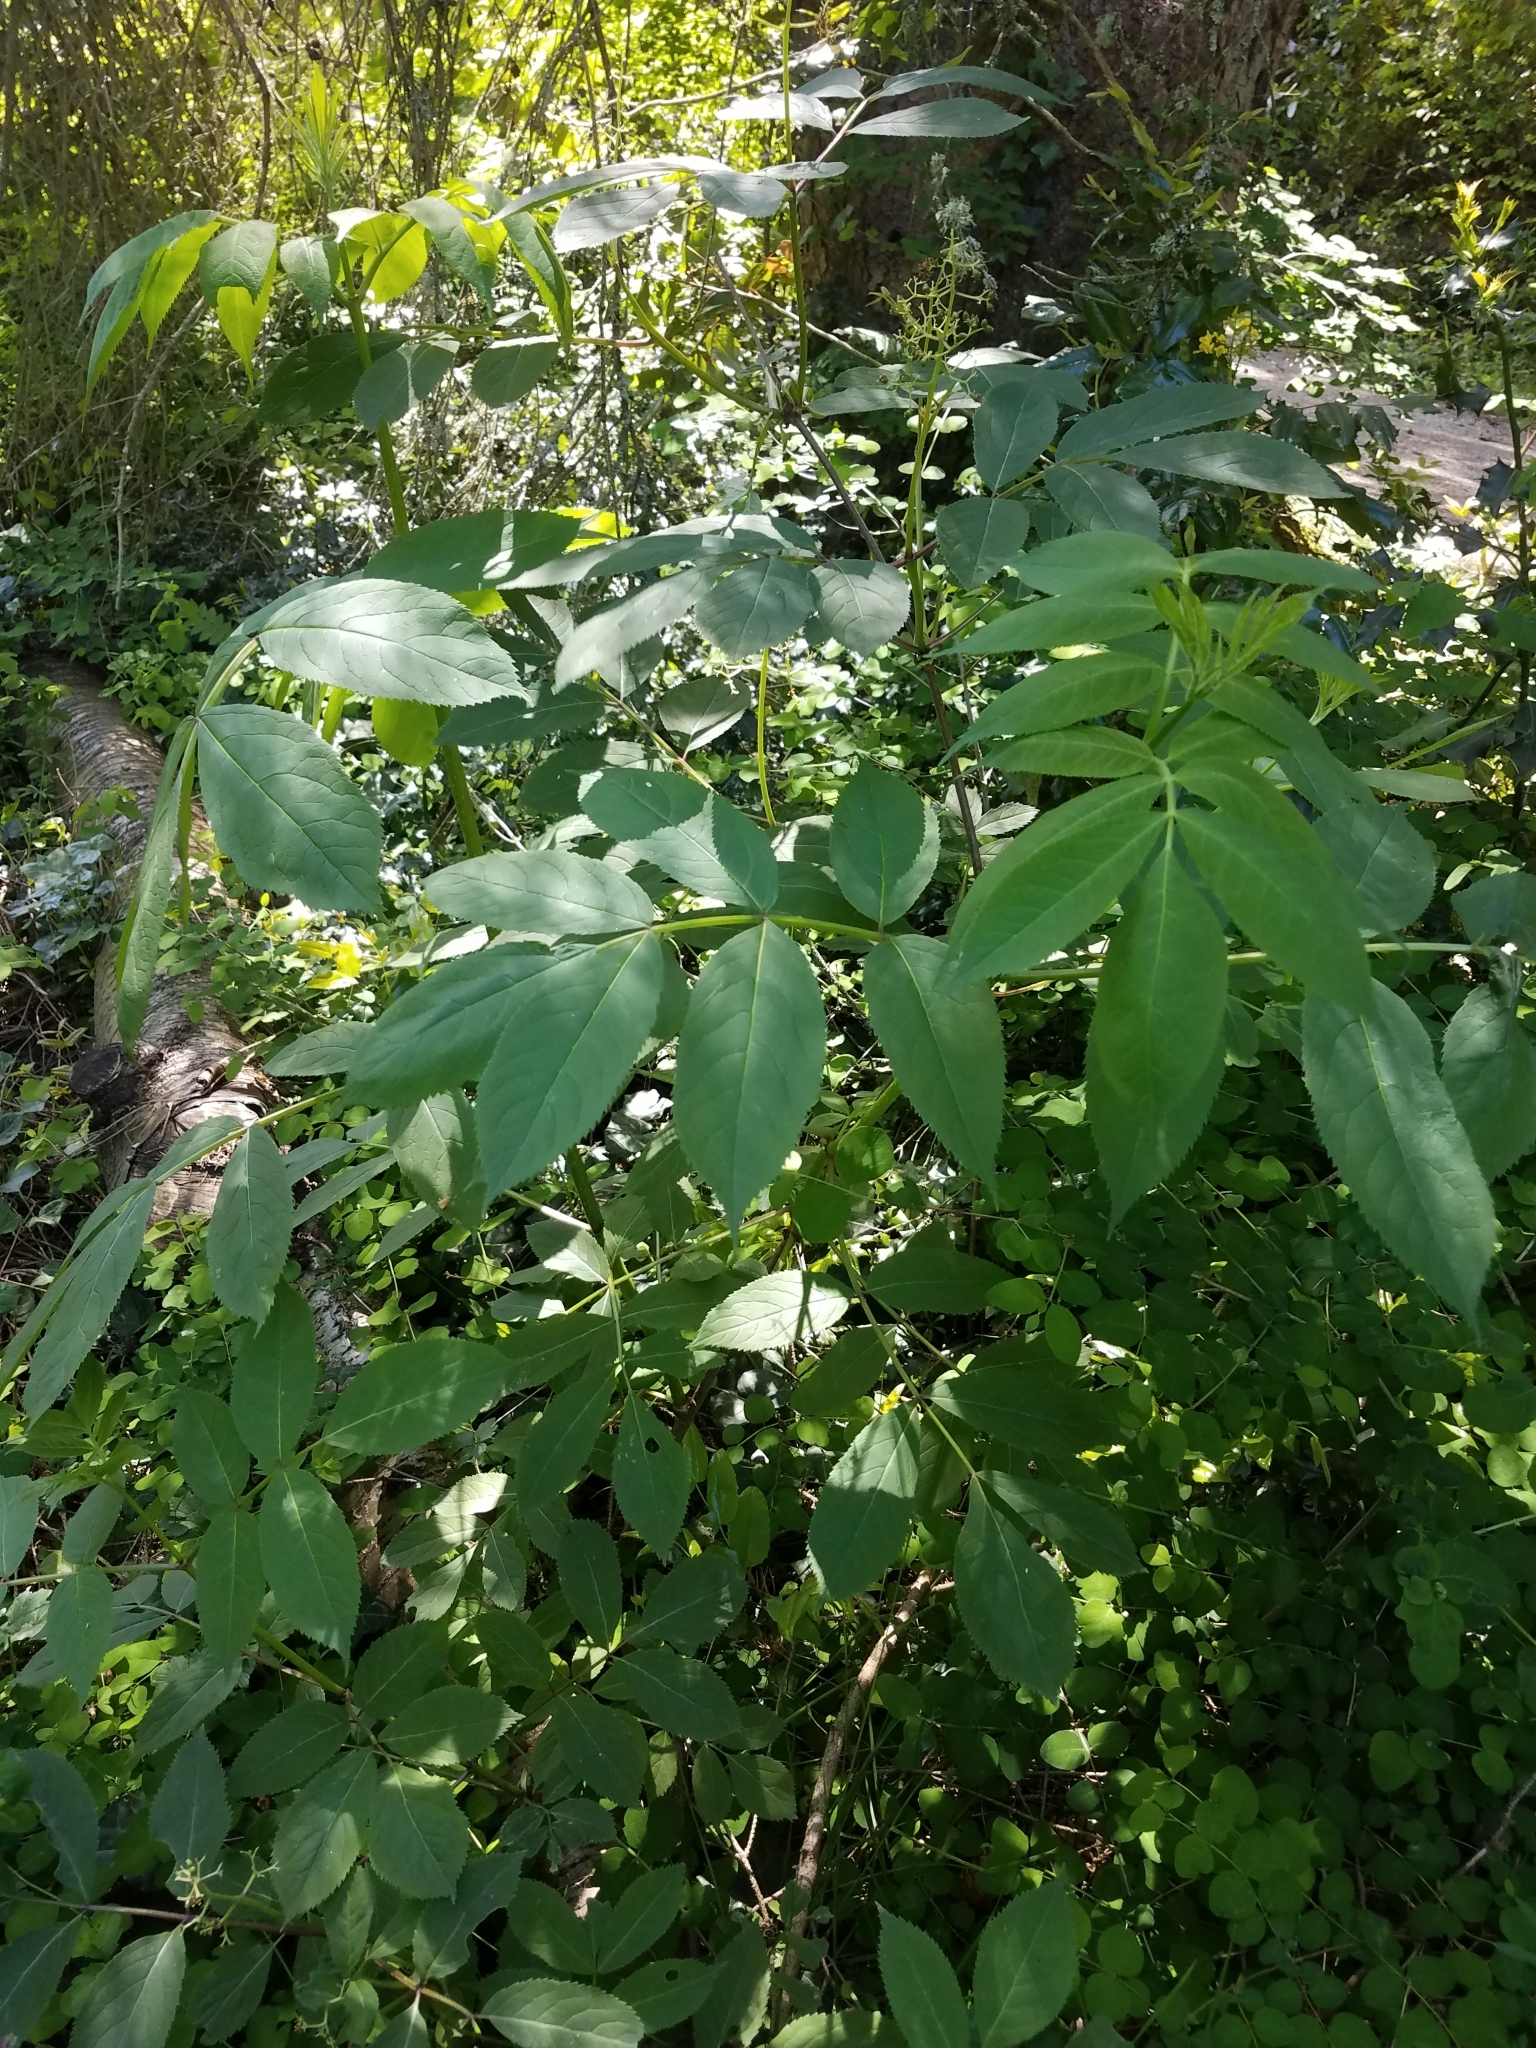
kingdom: Plantae
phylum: Tracheophyta
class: Magnoliopsida
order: Dipsacales
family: Viburnaceae
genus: Sambucus
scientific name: Sambucus racemosa
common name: Red-berried elder
